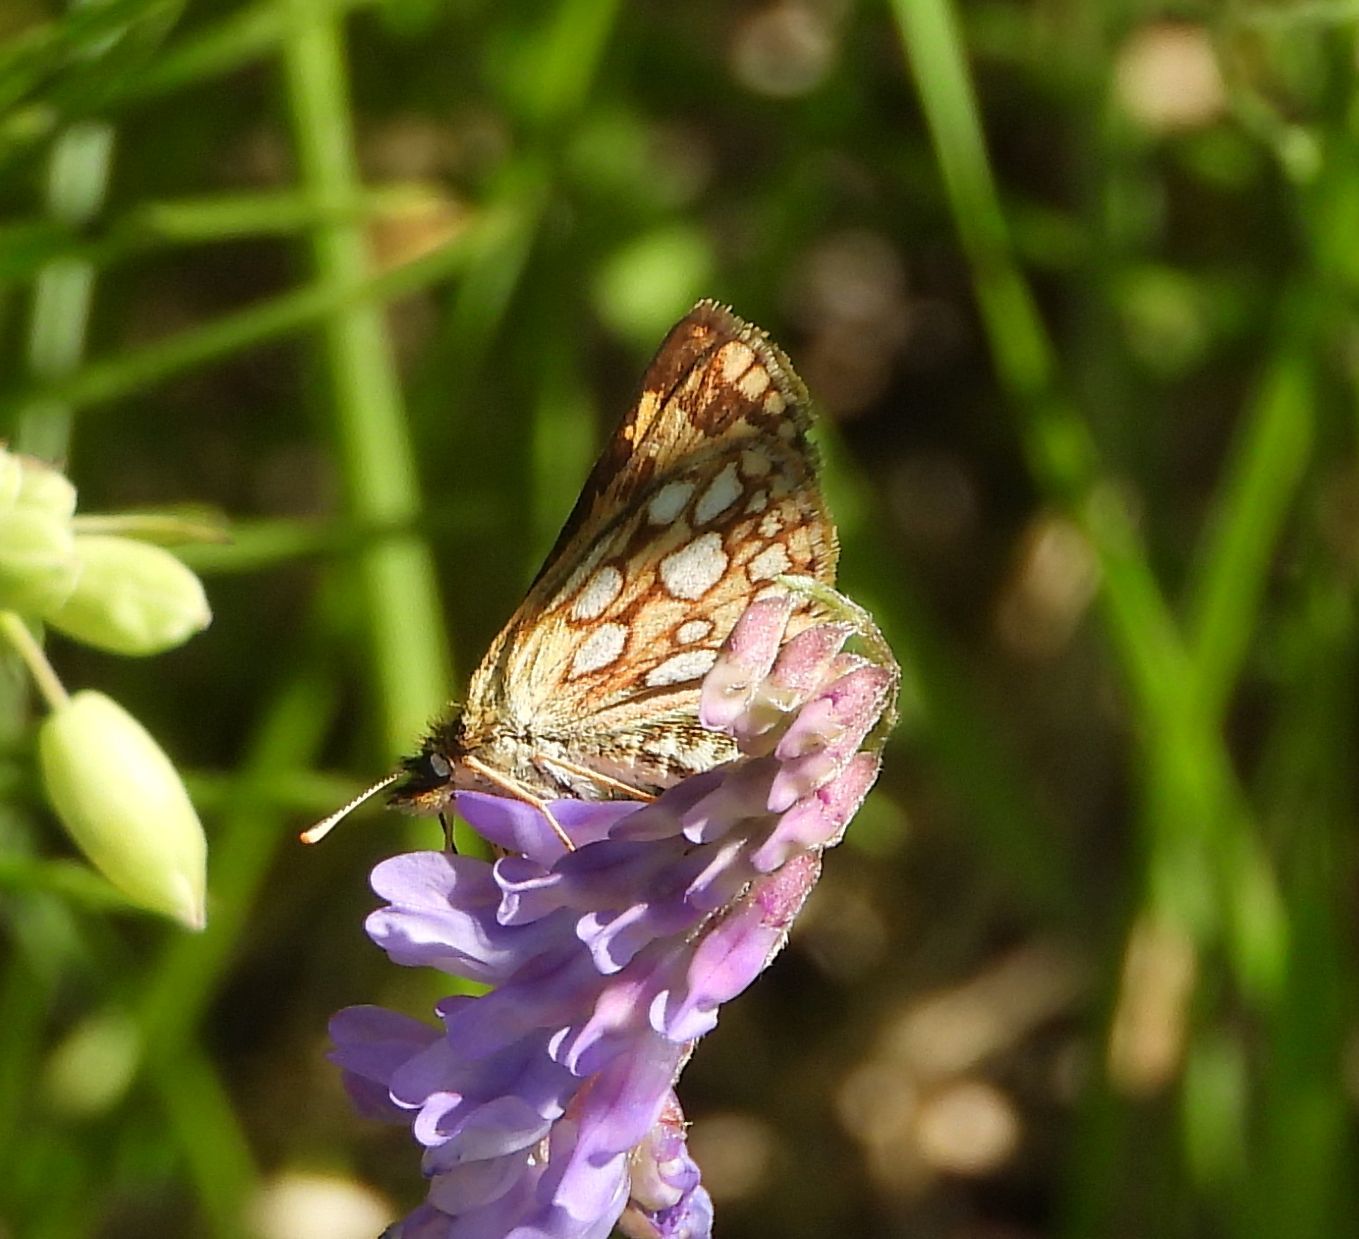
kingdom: Animalia
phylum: Arthropoda
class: Insecta
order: Lepidoptera
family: Hesperiidae
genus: Carterocephalus
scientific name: Carterocephalus mandan
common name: Arctic skipperling
